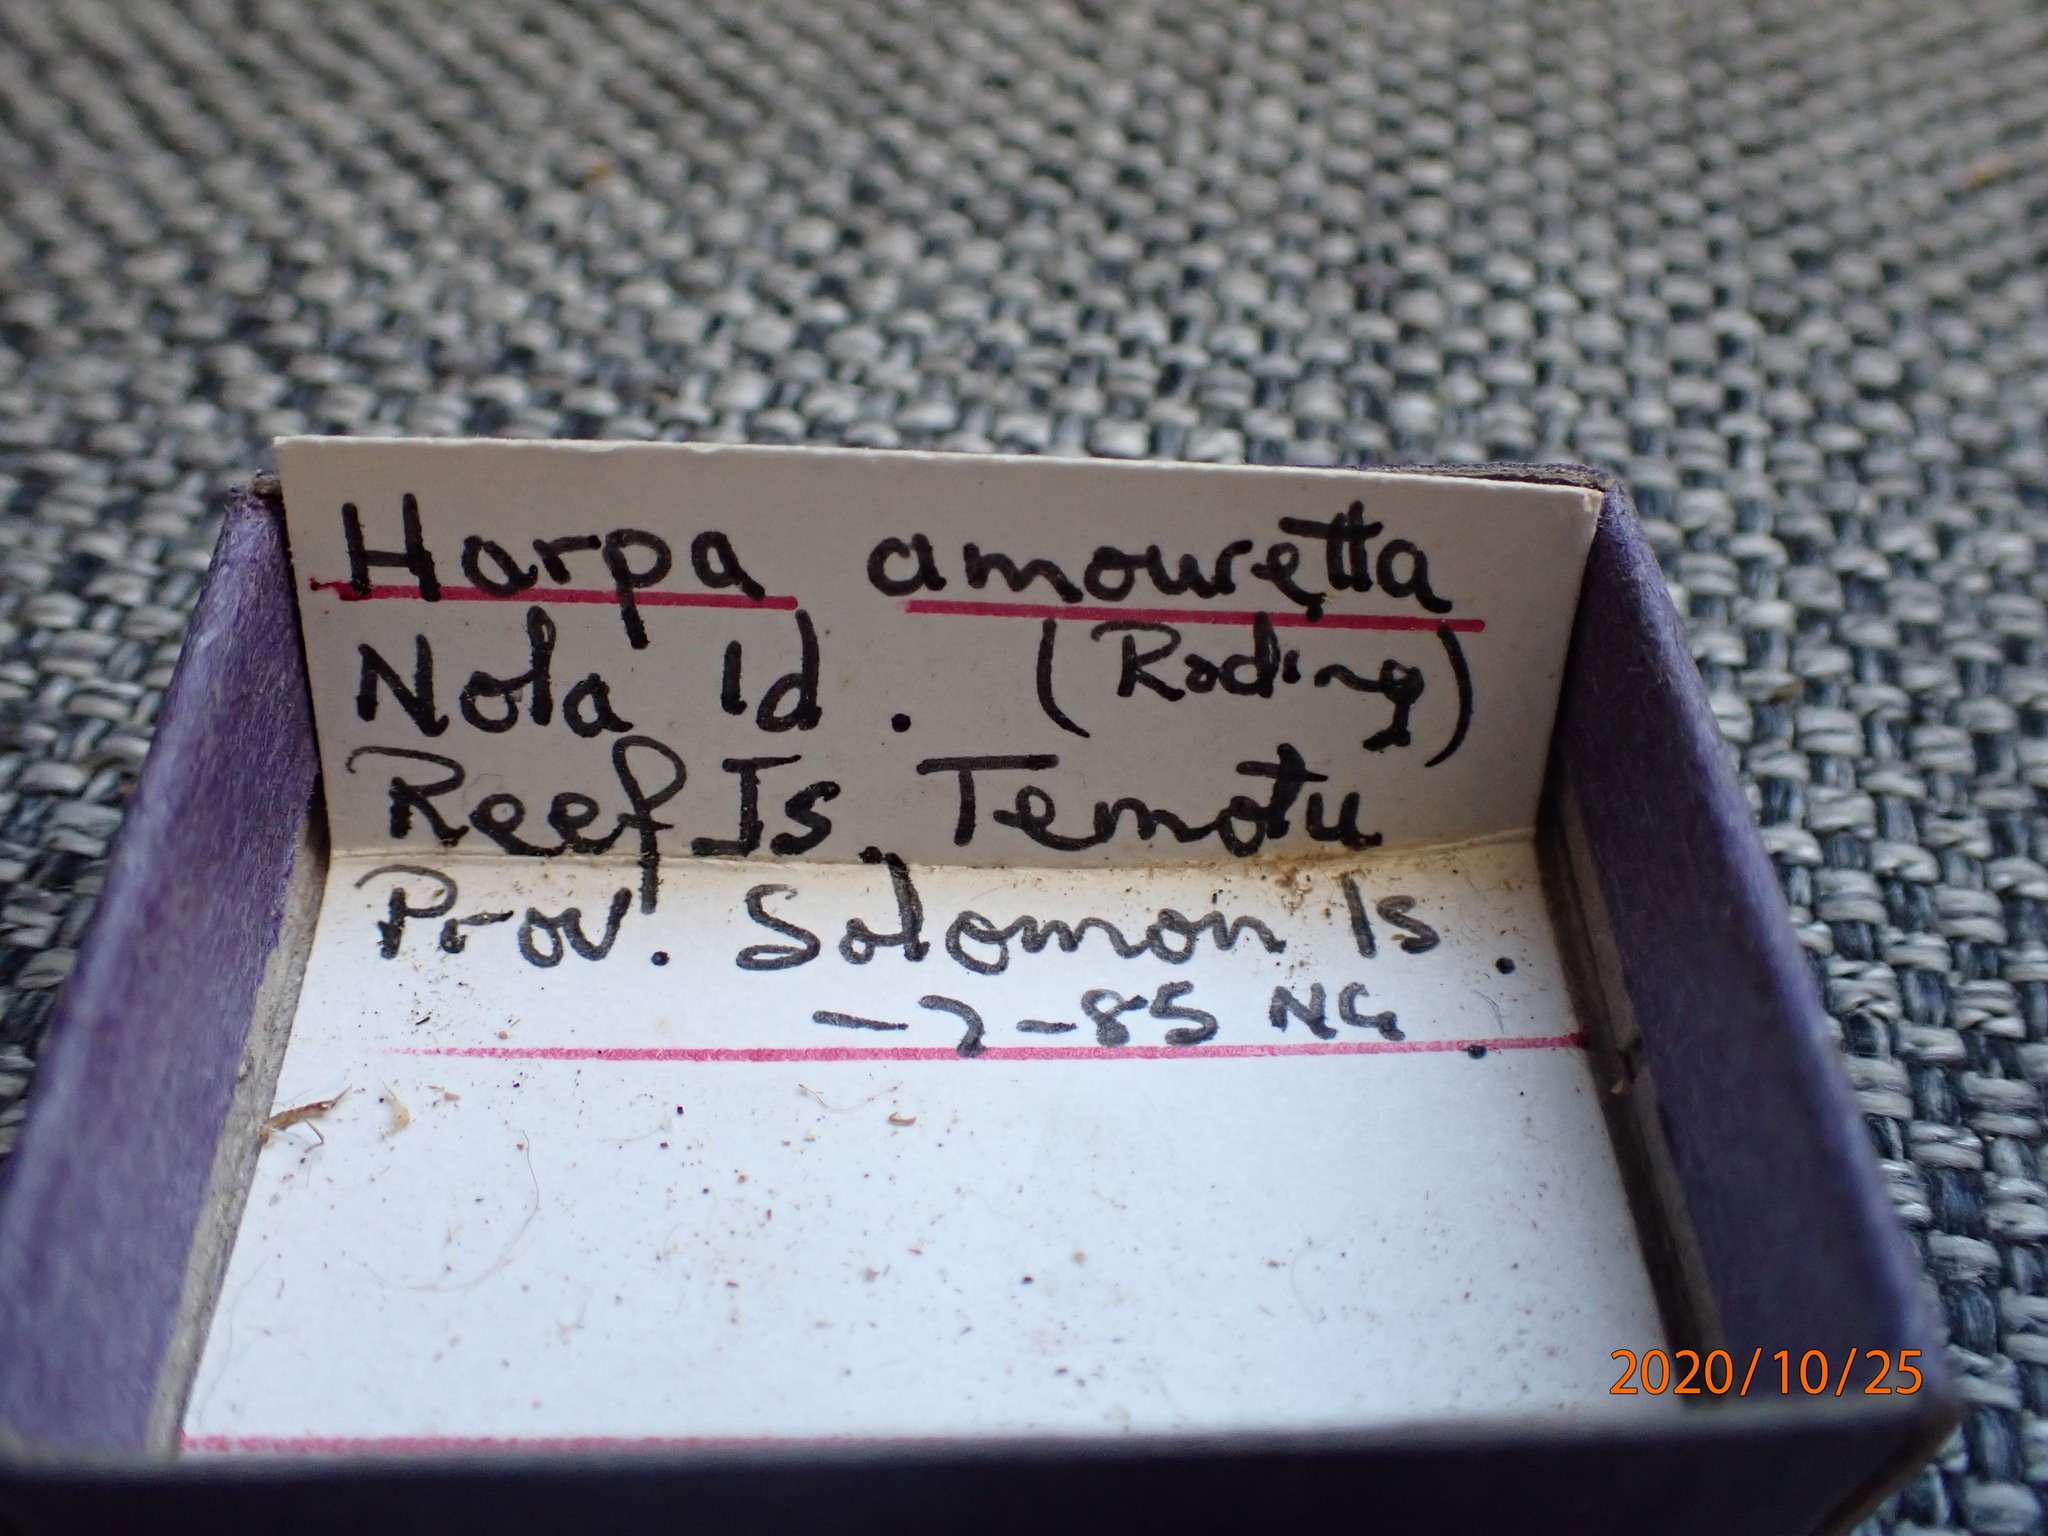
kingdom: Animalia
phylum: Mollusca
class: Gastropoda
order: Neogastropoda
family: Harpidae
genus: Harpa
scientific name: Harpa amouretta
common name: Lesser harp
